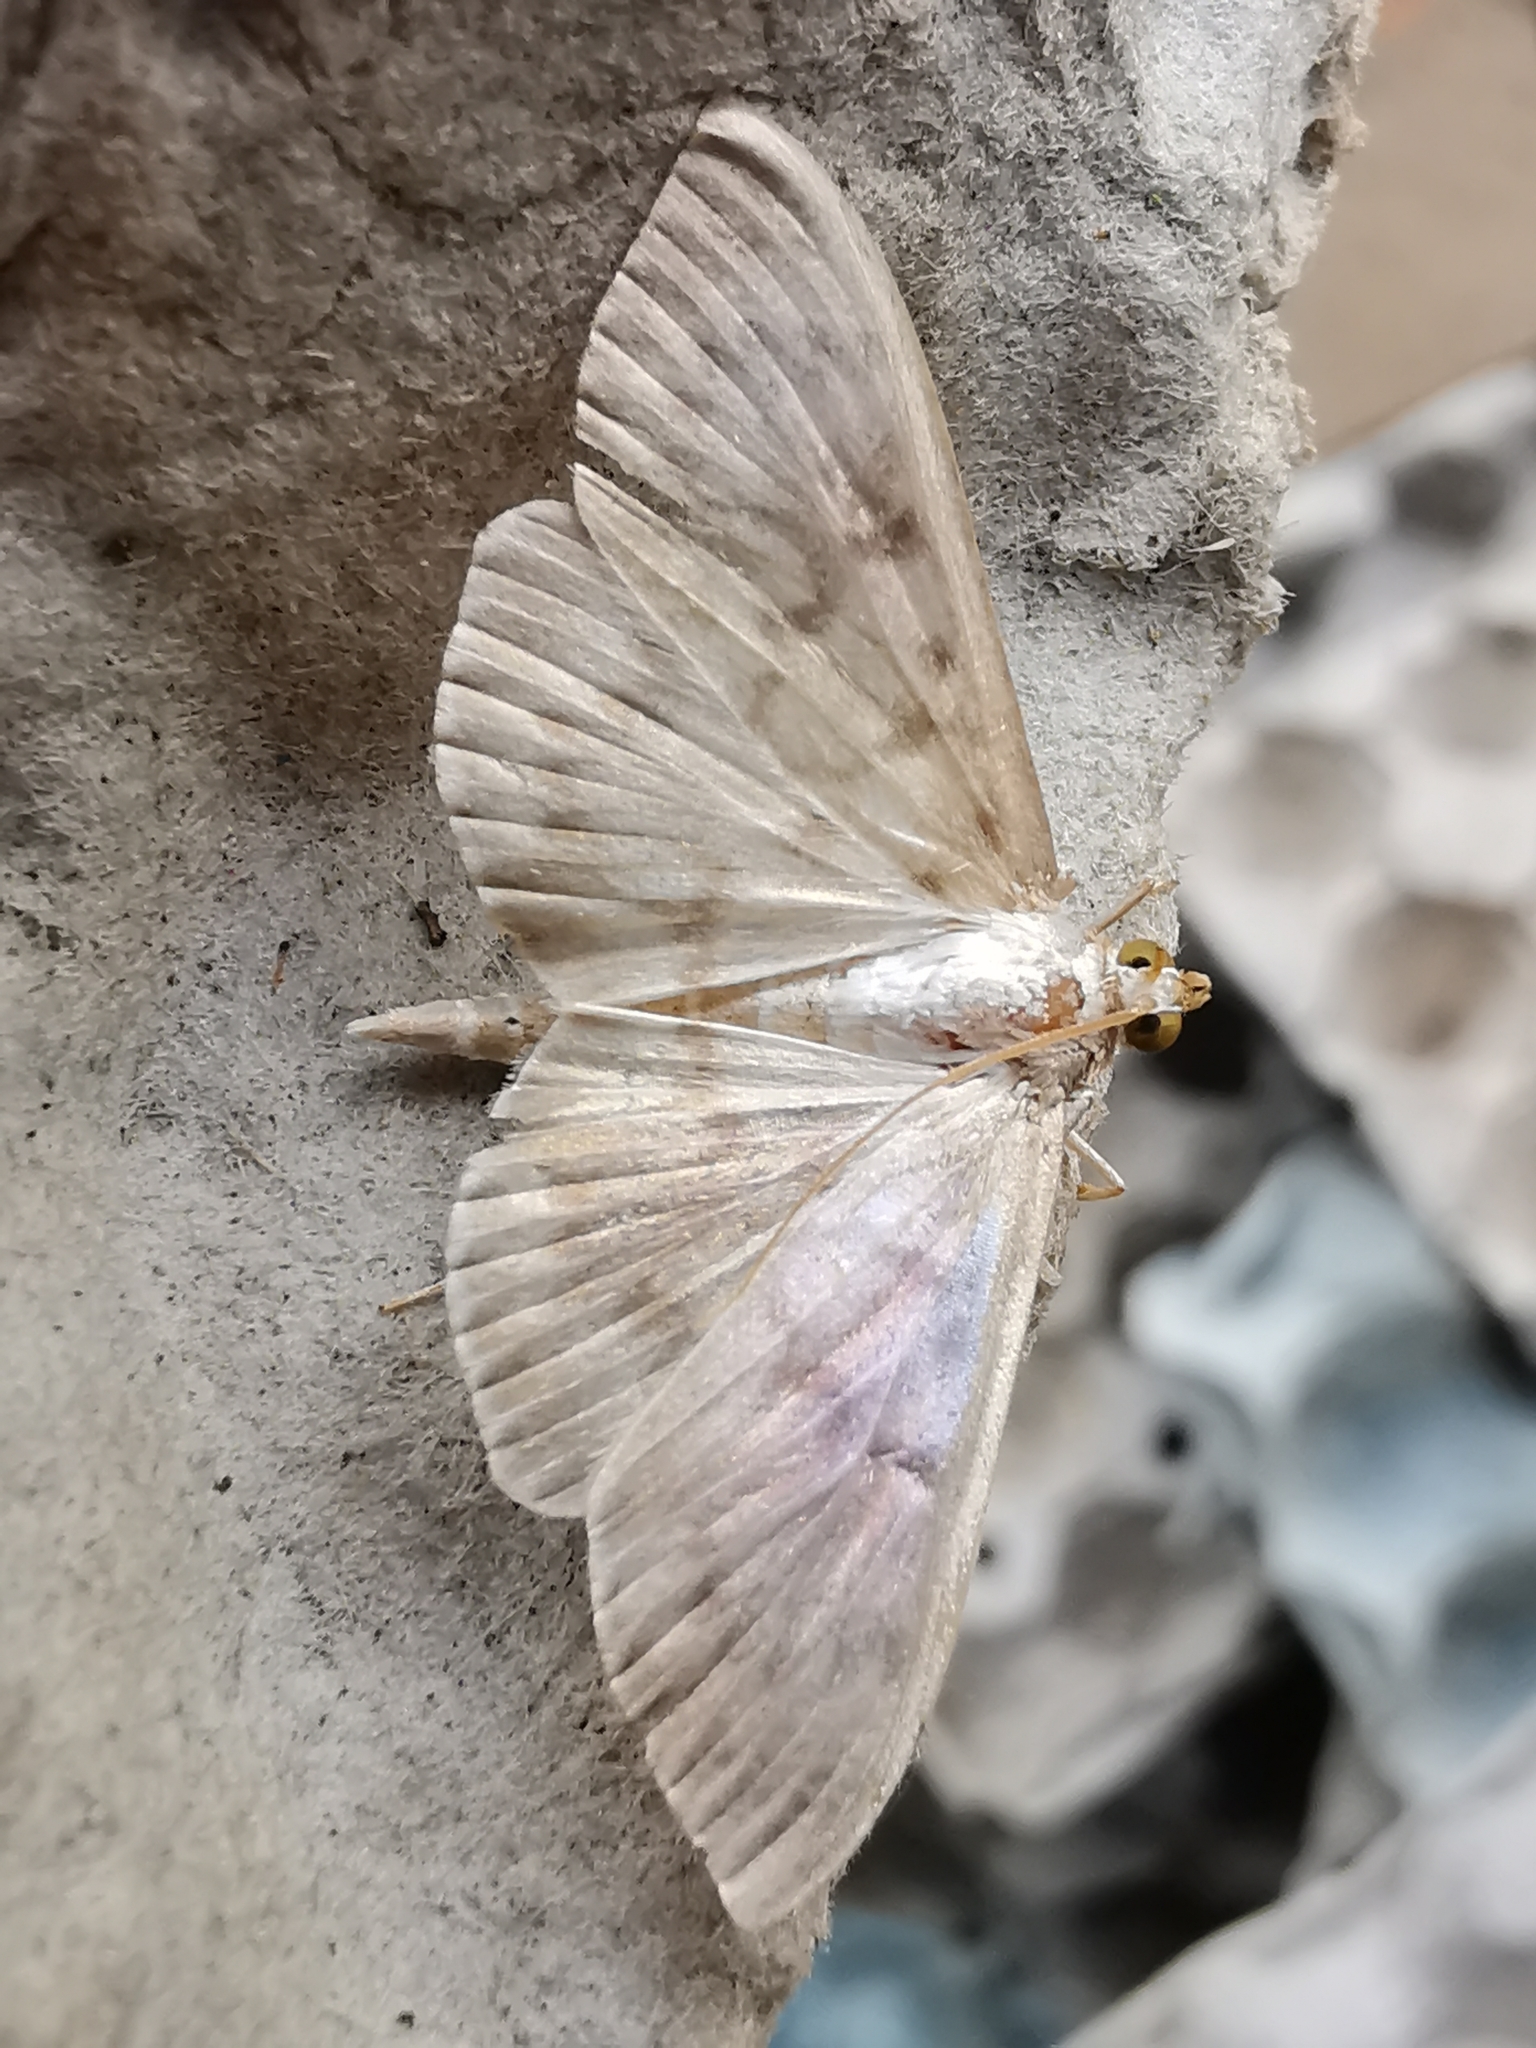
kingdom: Animalia
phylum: Arthropoda
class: Insecta
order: Lepidoptera
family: Crambidae
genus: Patania
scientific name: Patania ruralis
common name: Mother of pearl
